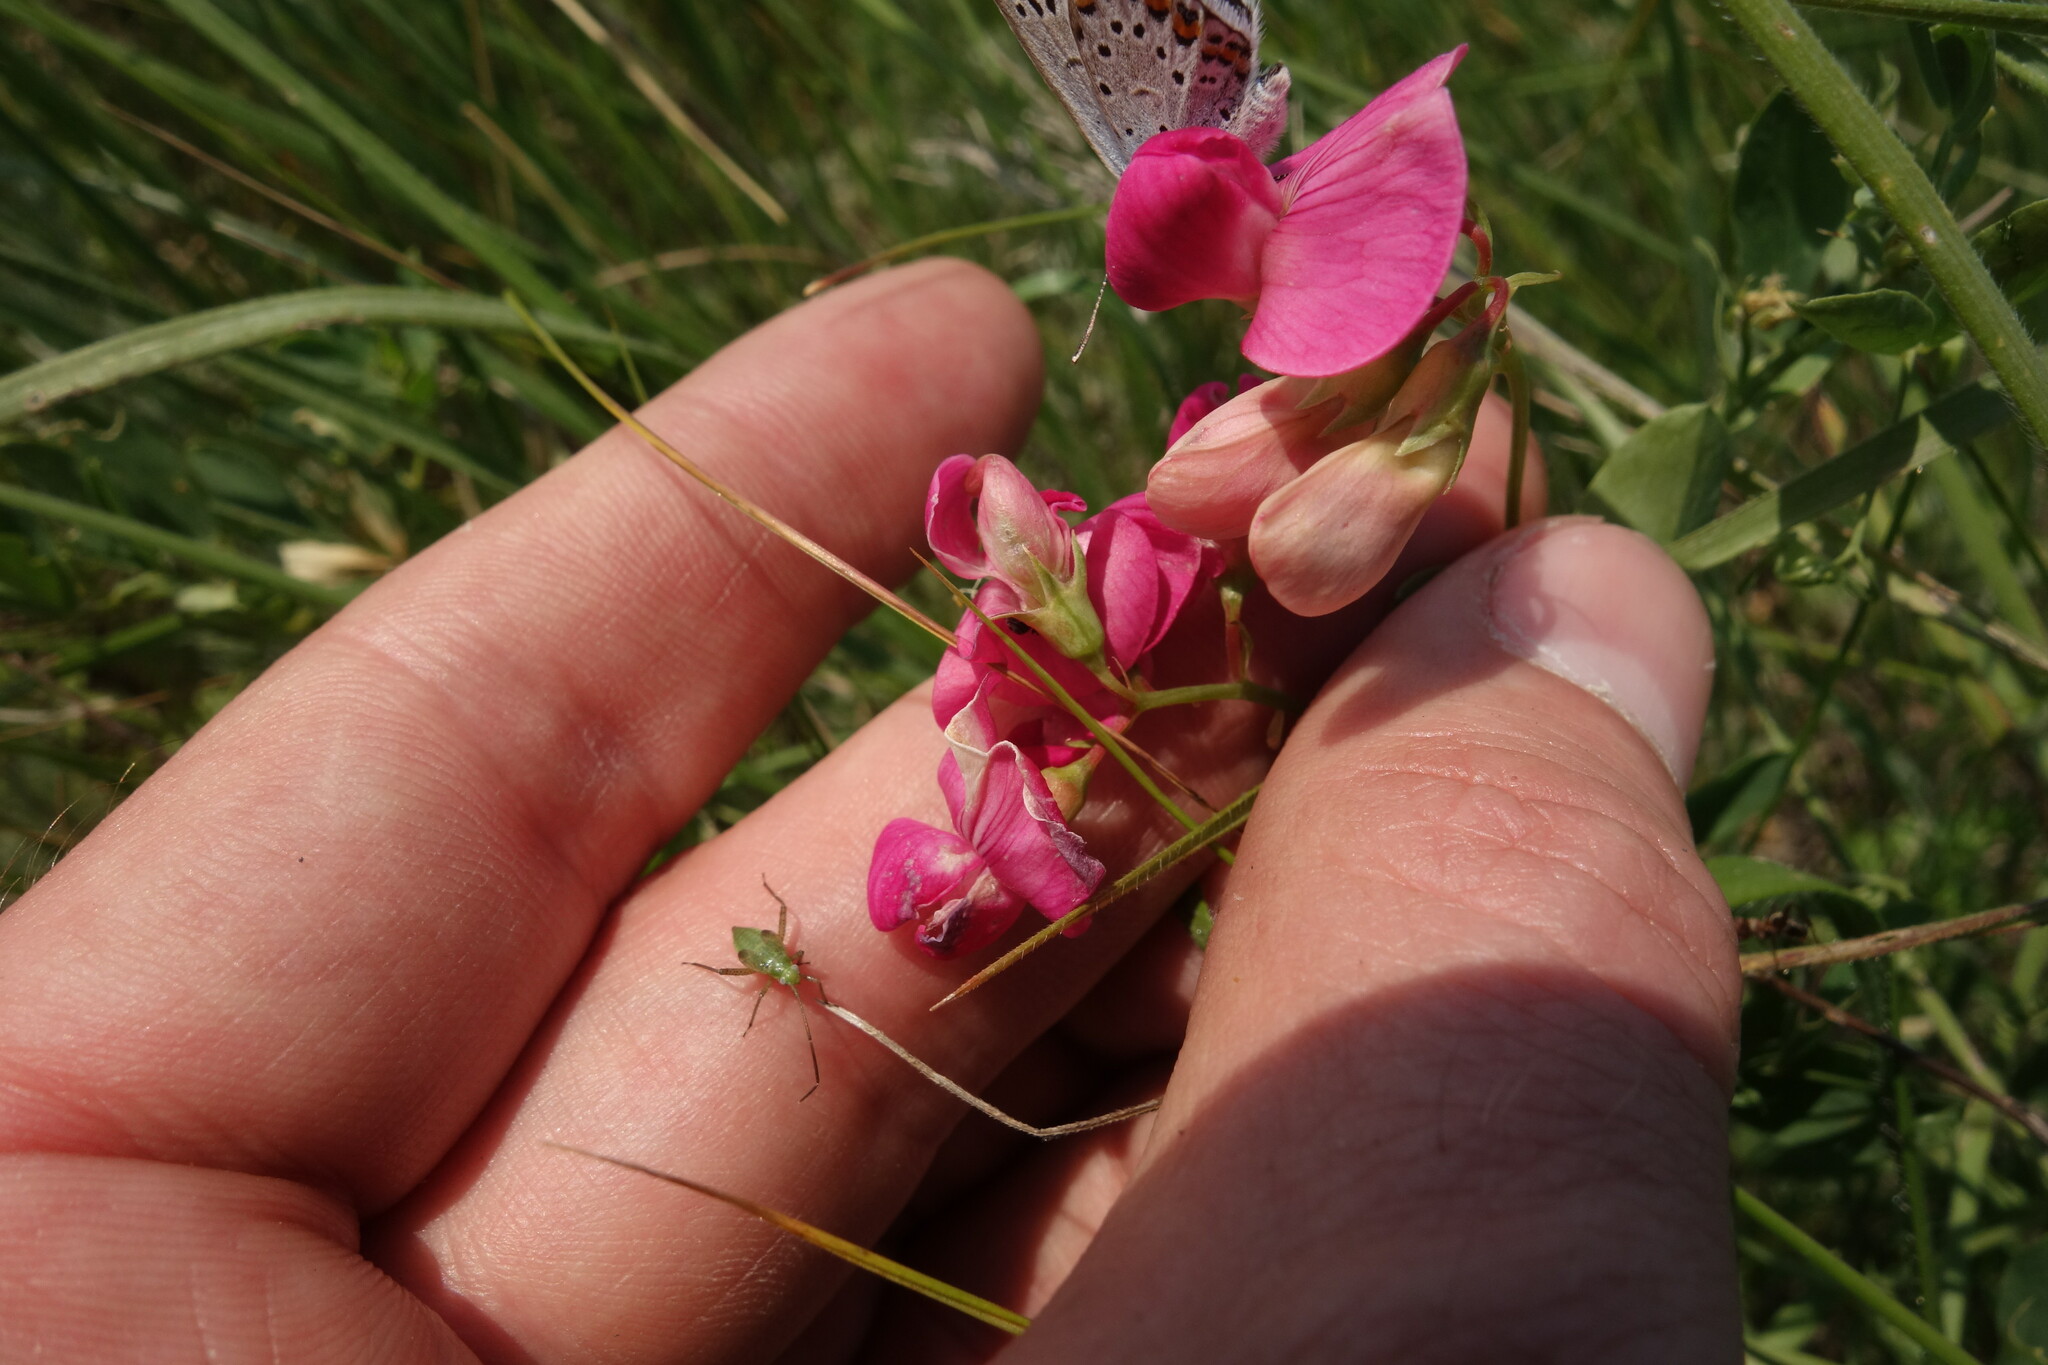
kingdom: Plantae
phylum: Tracheophyta
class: Magnoliopsida
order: Fabales
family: Fabaceae
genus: Lathyrus
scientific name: Lathyrus tuberosus
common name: Tuberous pea
